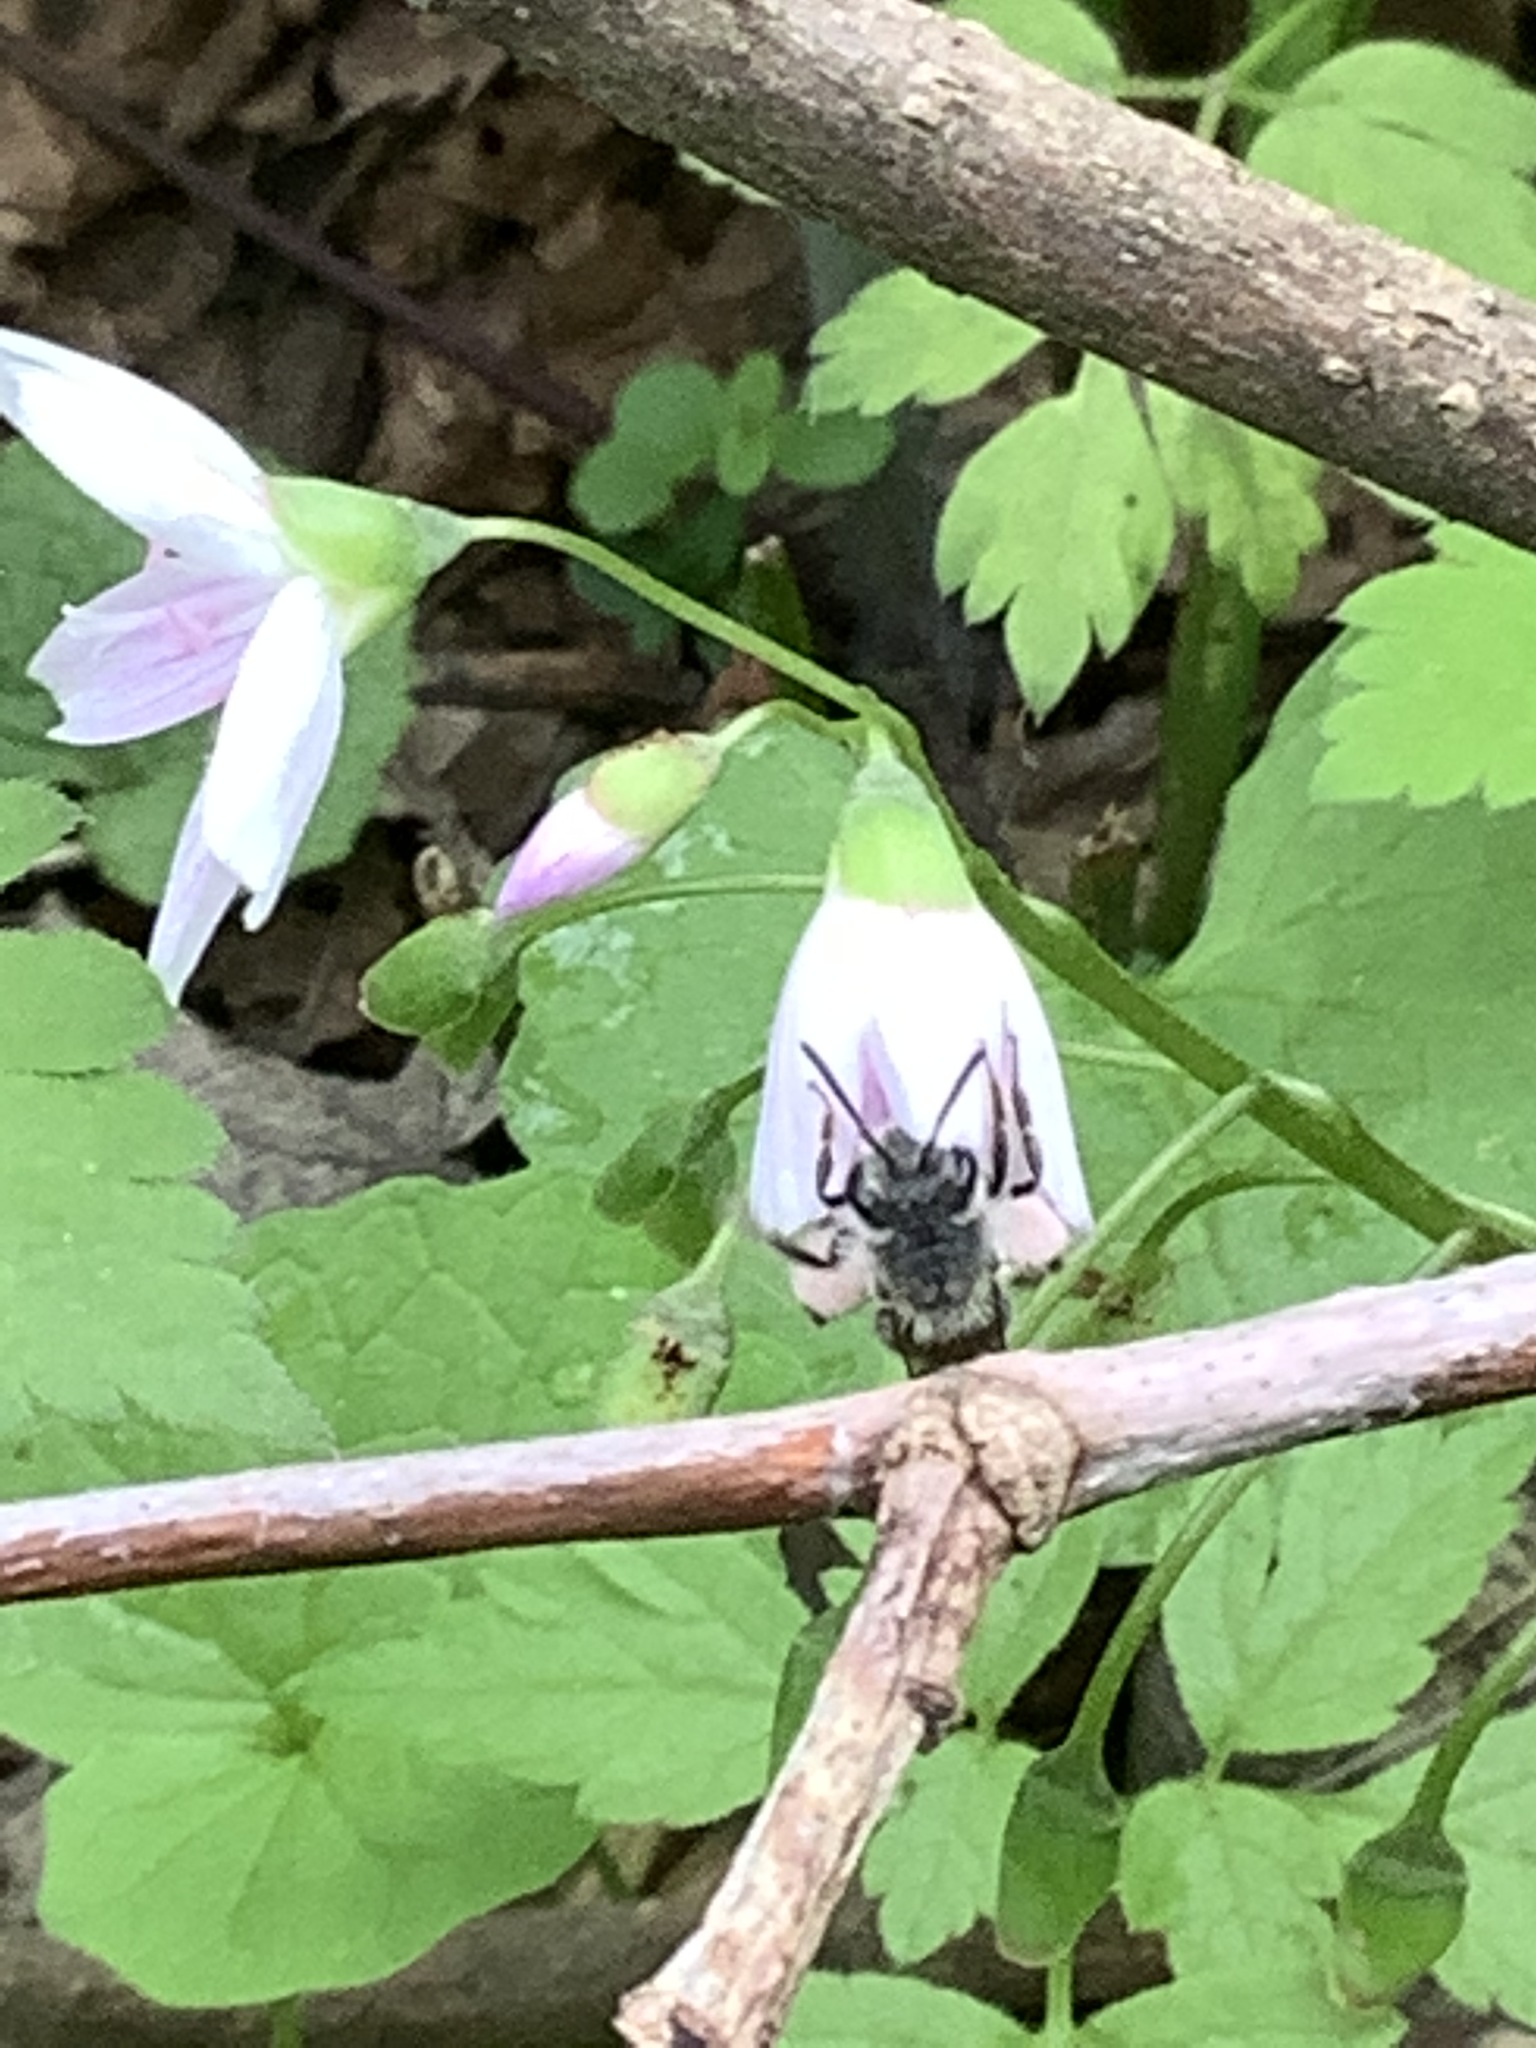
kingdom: Animalia
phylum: Arthropoda
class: Insecta
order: Hymenoptera
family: Andrenidae
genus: Andrena
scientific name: Andrena erigeniae
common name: Spring beauty miner
